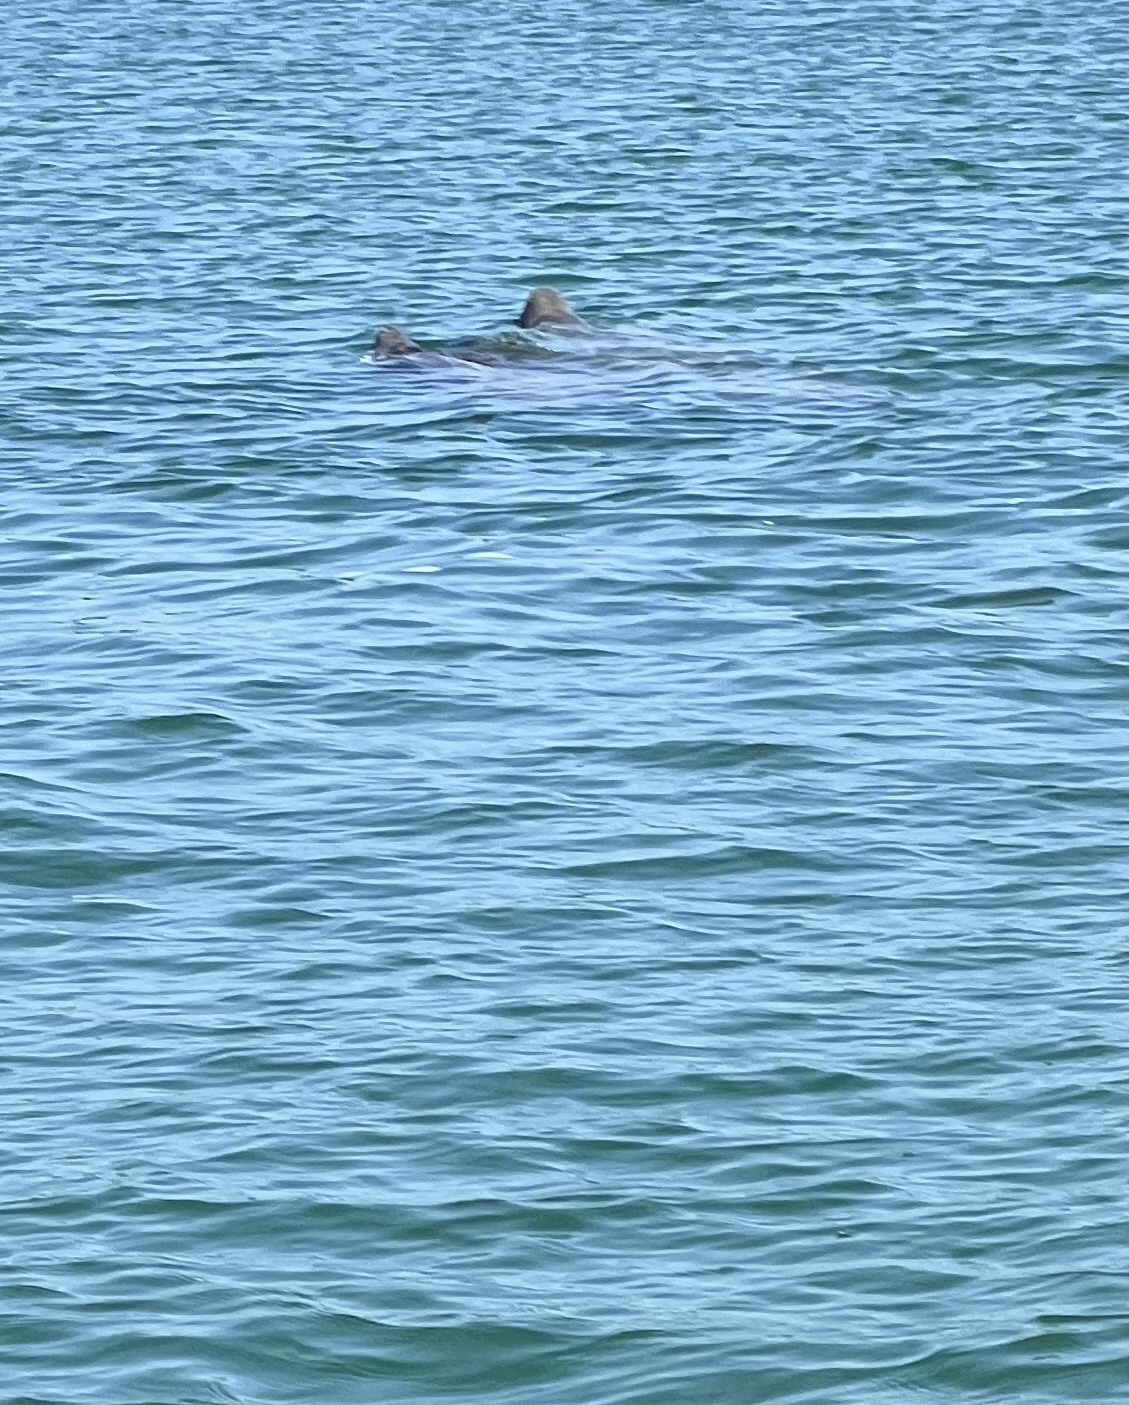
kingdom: Animalia
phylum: Chordata
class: Mammalia
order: Sirenia
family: Trichechidae
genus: Trichechus
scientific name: Trichechus manatus
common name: West indian manatee
